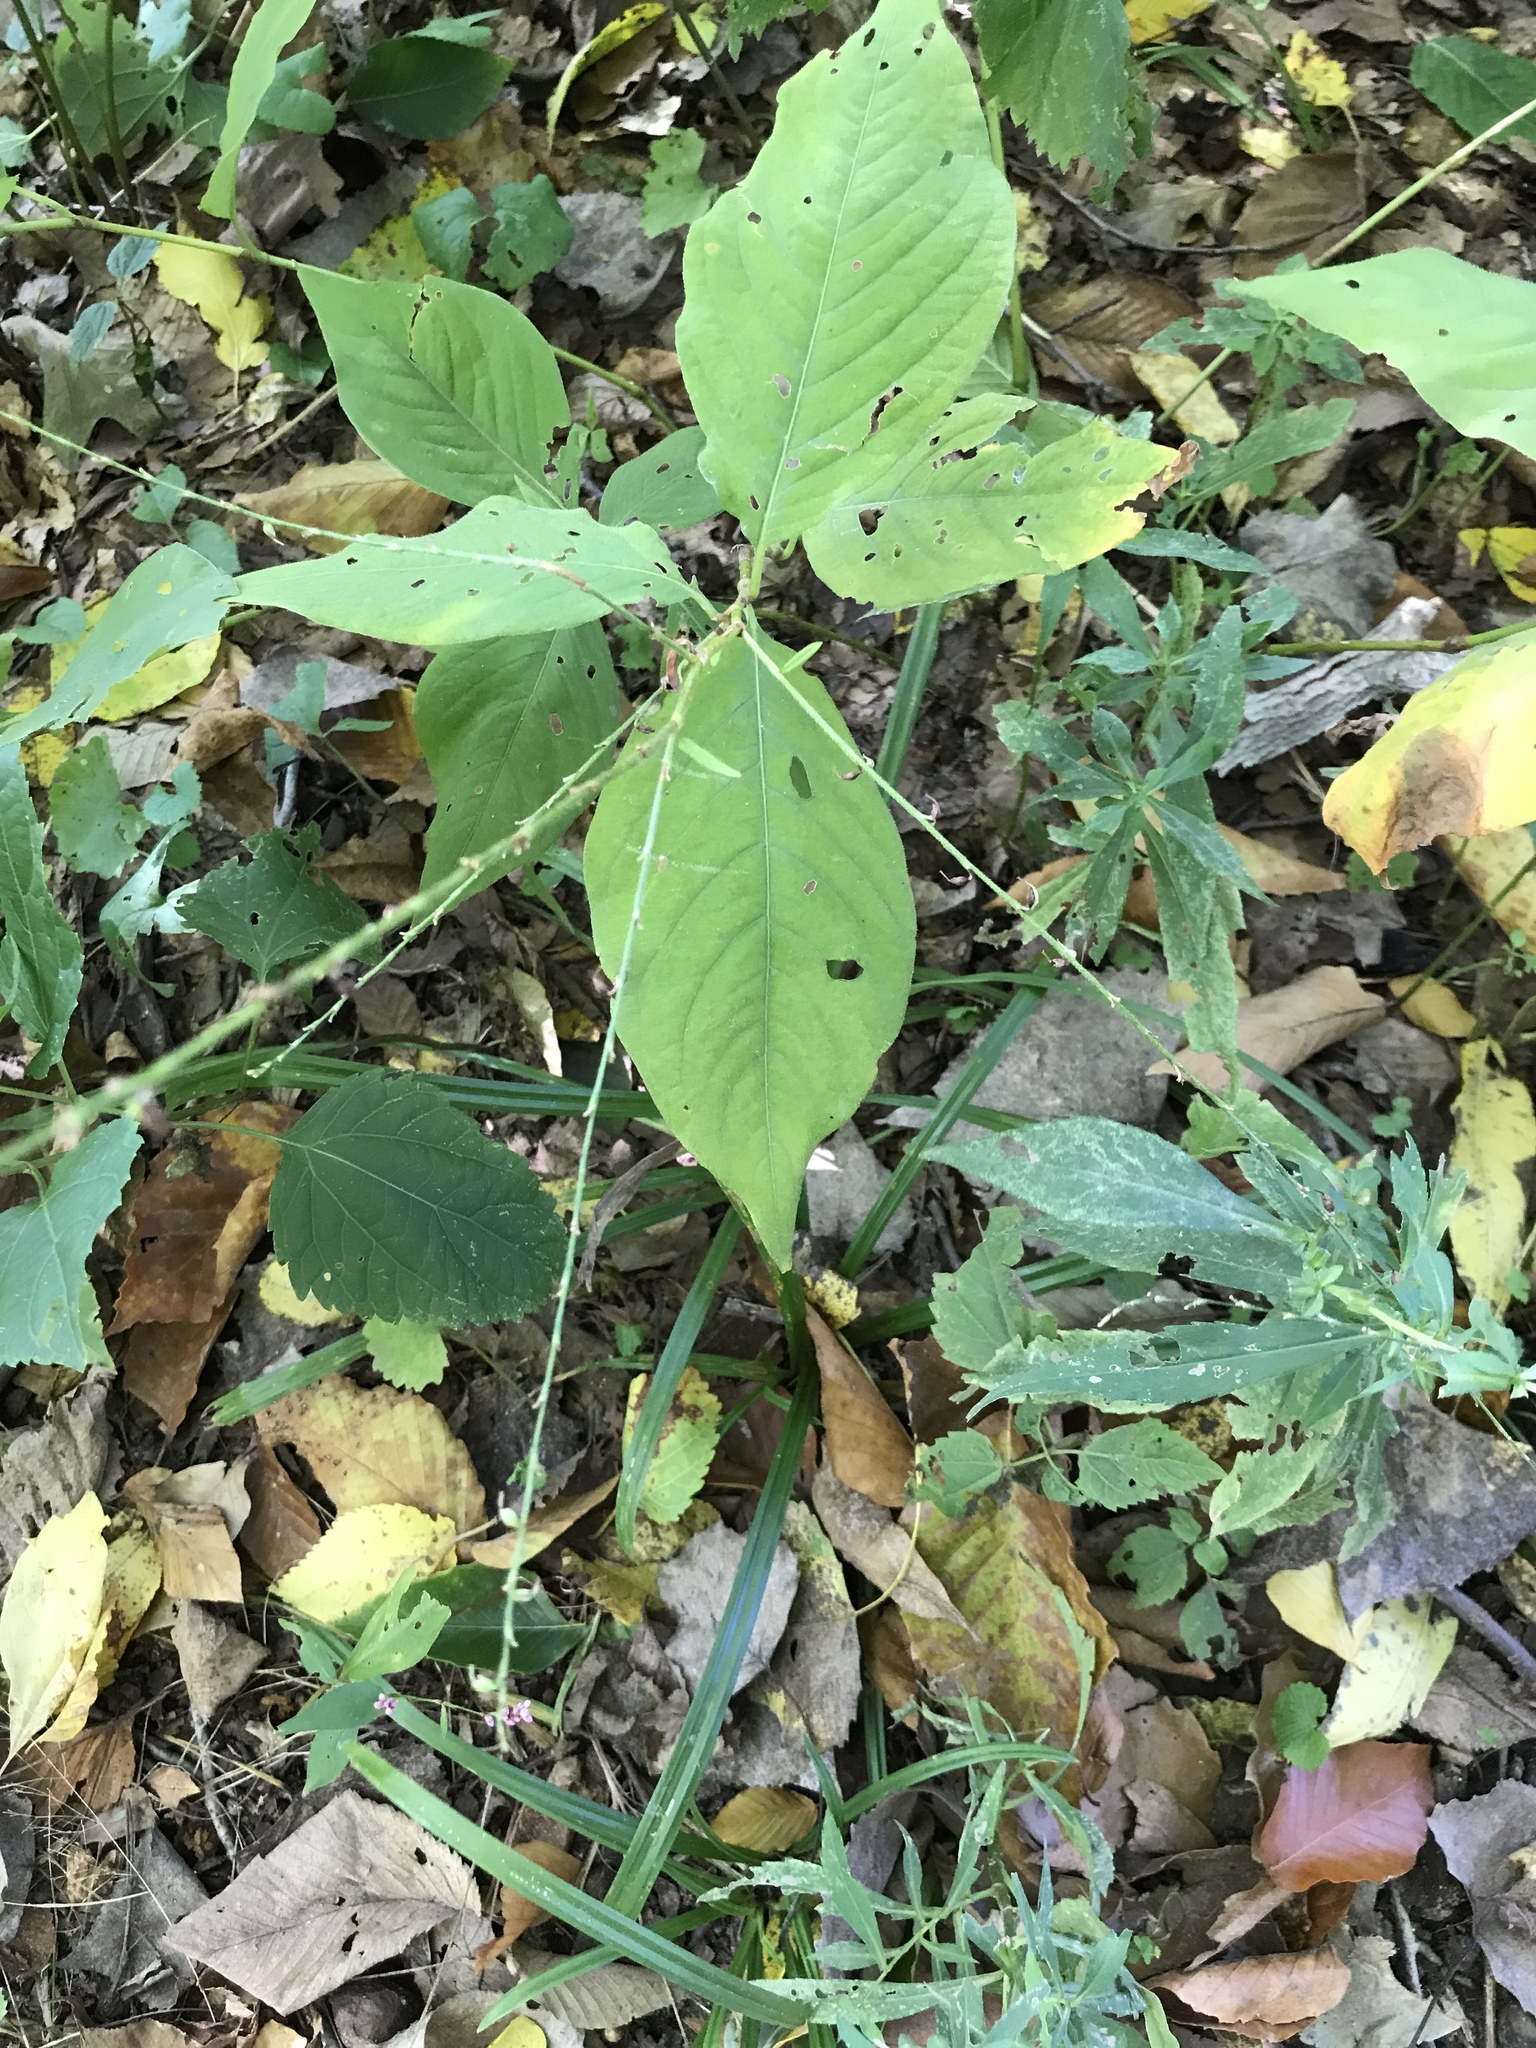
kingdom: Plantae
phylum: Tracheophyta
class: Magnoliopsida
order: Caryophyllales
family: Polygonaceae
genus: Persicaria
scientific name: Persicaria virginiana
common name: Jumpseed
